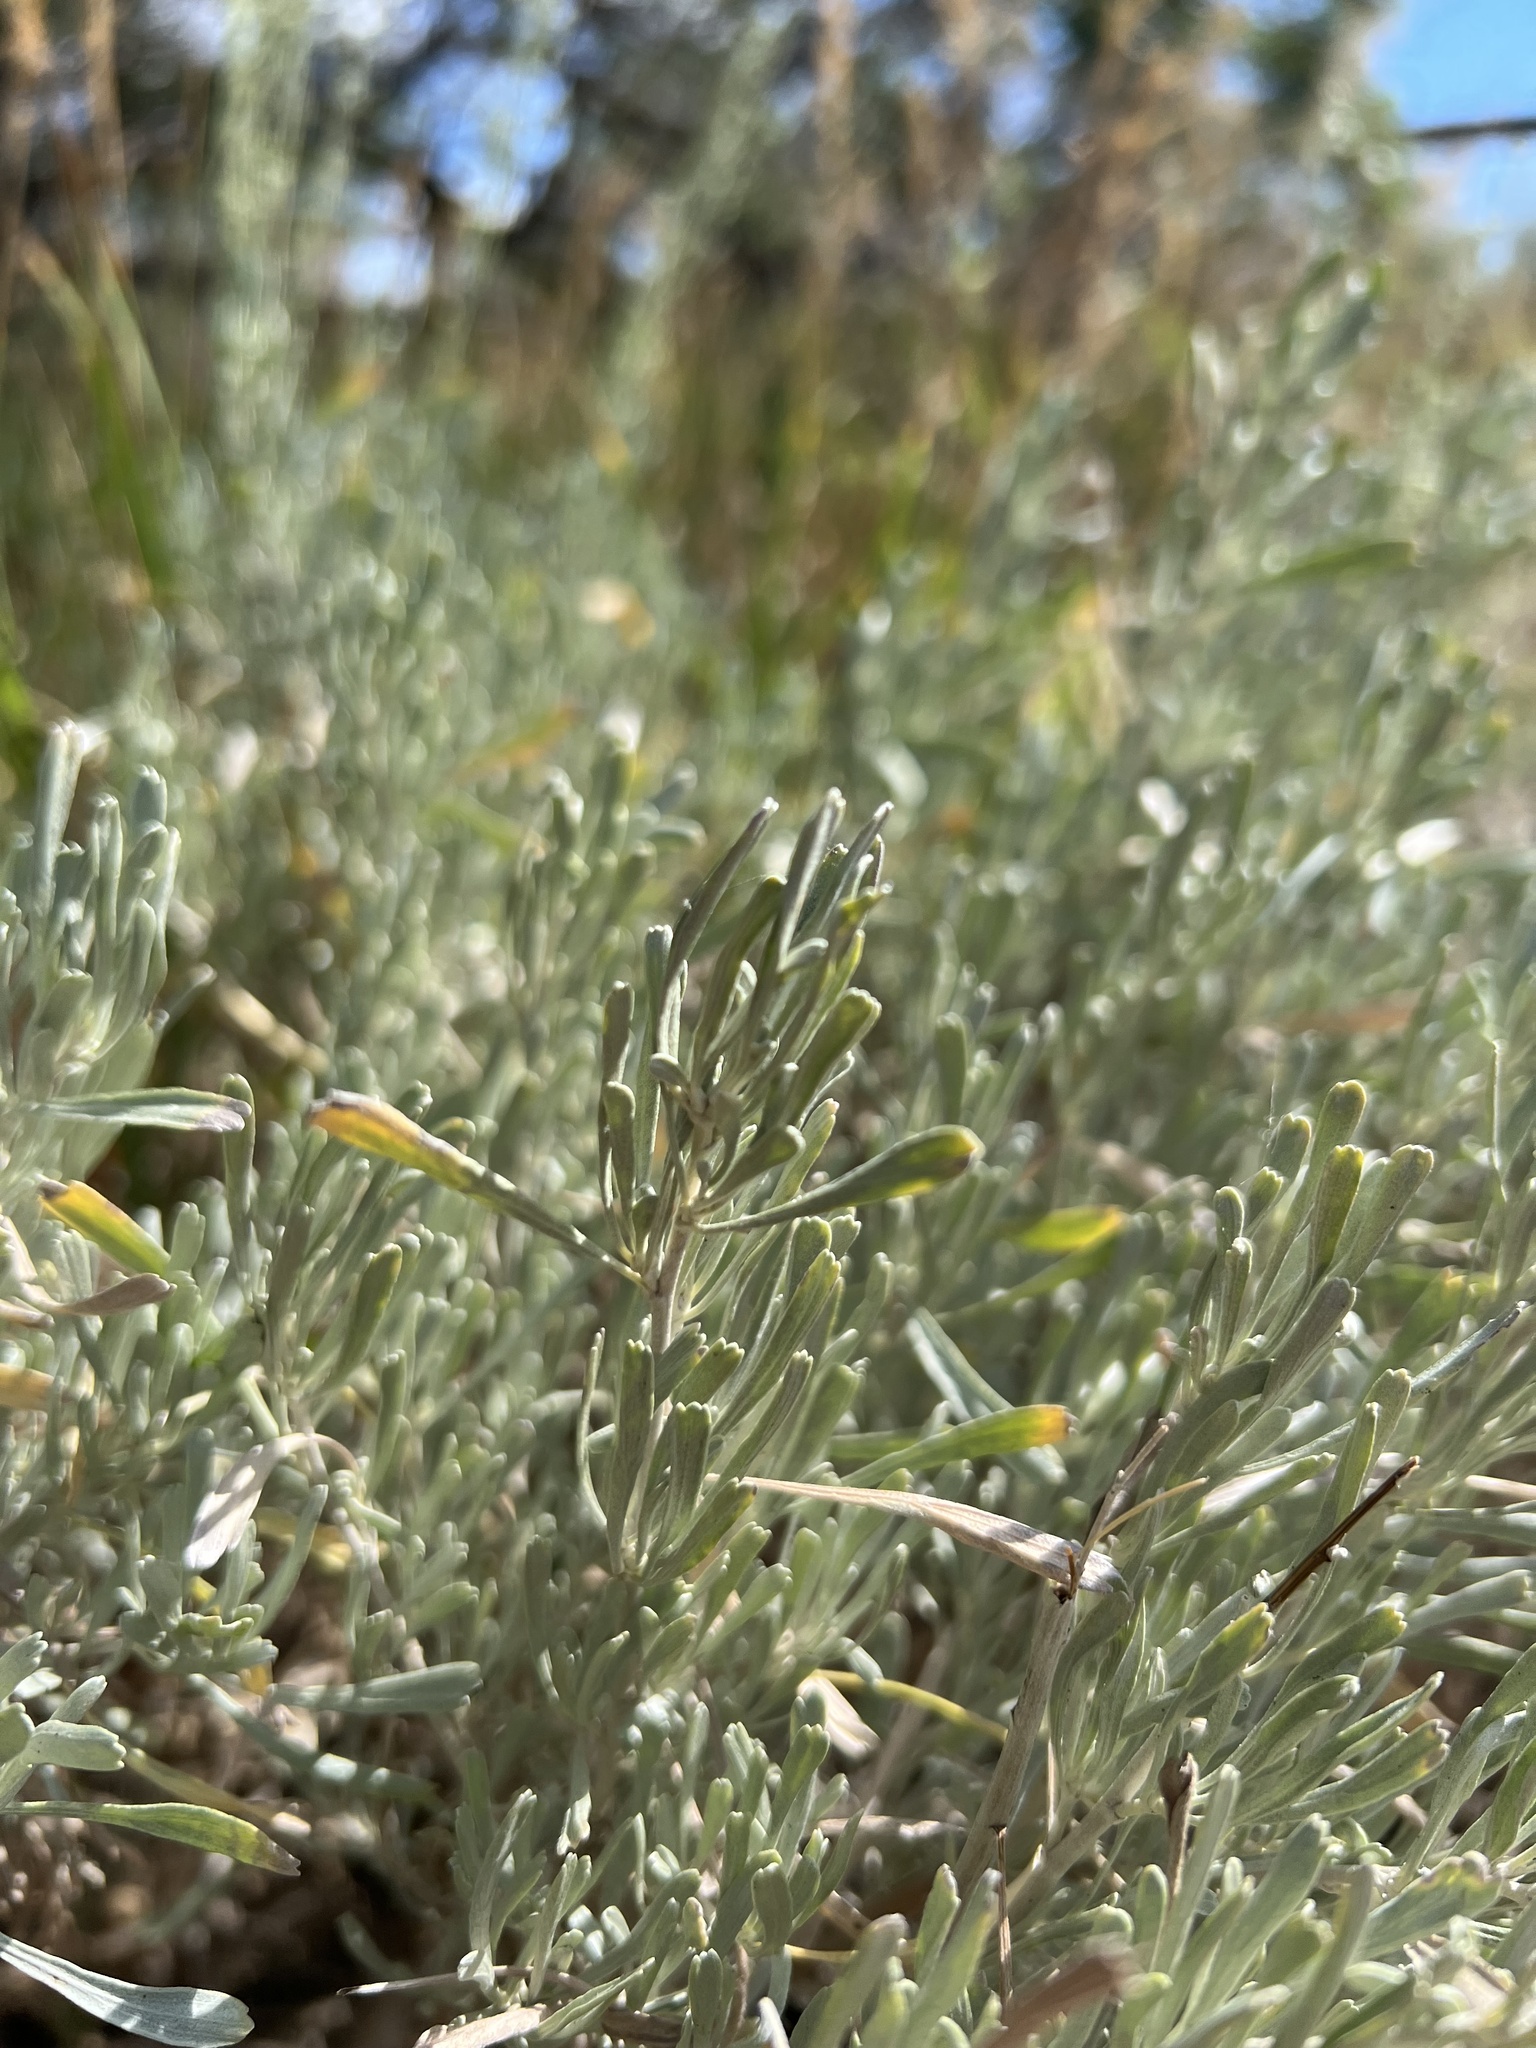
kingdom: Plantae
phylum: Tracheophyta
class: Magnoliopsida
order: Asterales
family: Asteraceae
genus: Artemisia
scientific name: Artemisia tridentata
